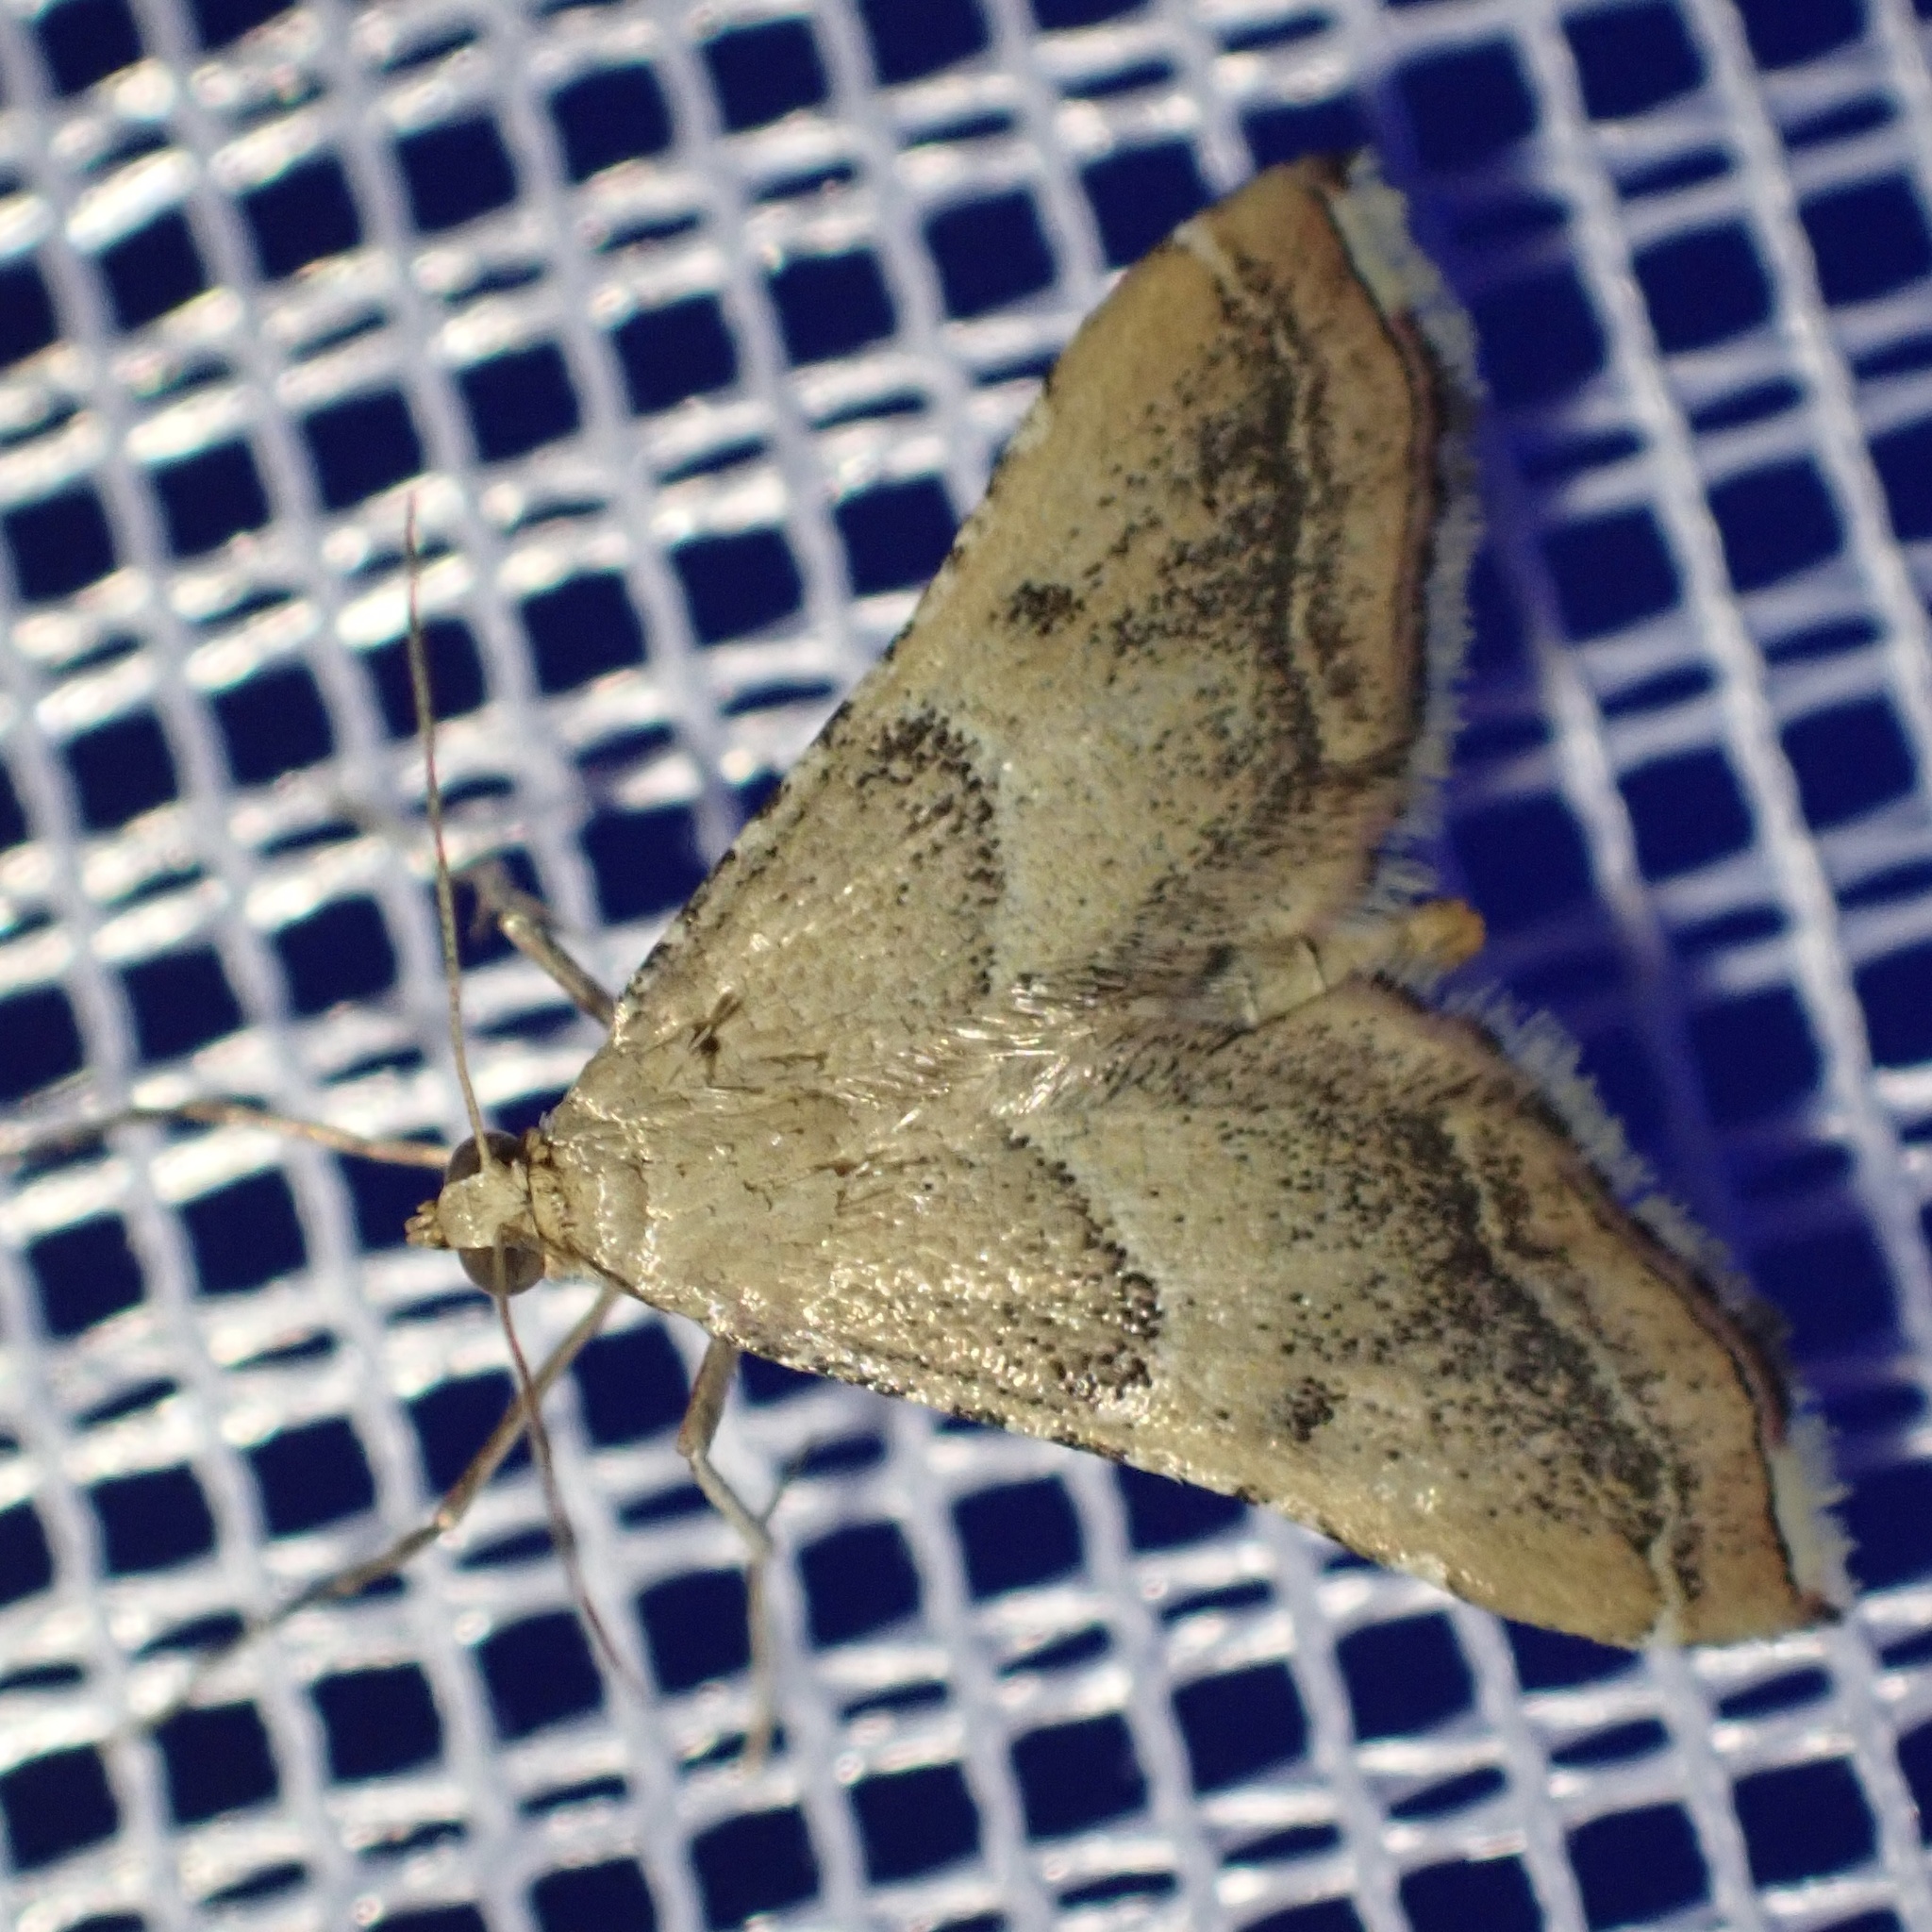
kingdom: Animalia
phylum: Arthropoda
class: Insecta
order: Lepidoptera
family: Pyralidae
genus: Endotricha
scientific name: Endotricha flammealis
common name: Rosy tabby
